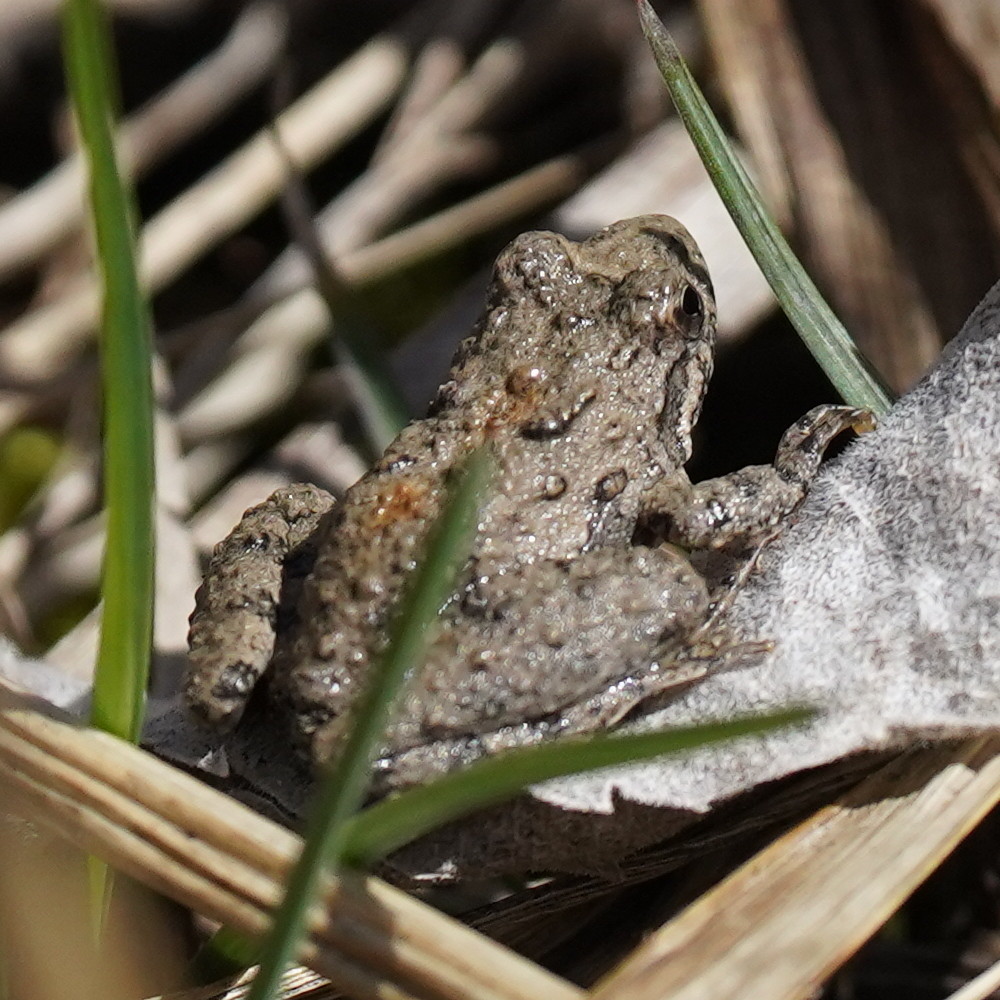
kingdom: Animalia
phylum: Chordata
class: Amphibia
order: Anura
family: Hylidae
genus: Acris
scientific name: Acris blanchardi
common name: Blanchard's cricket frog
